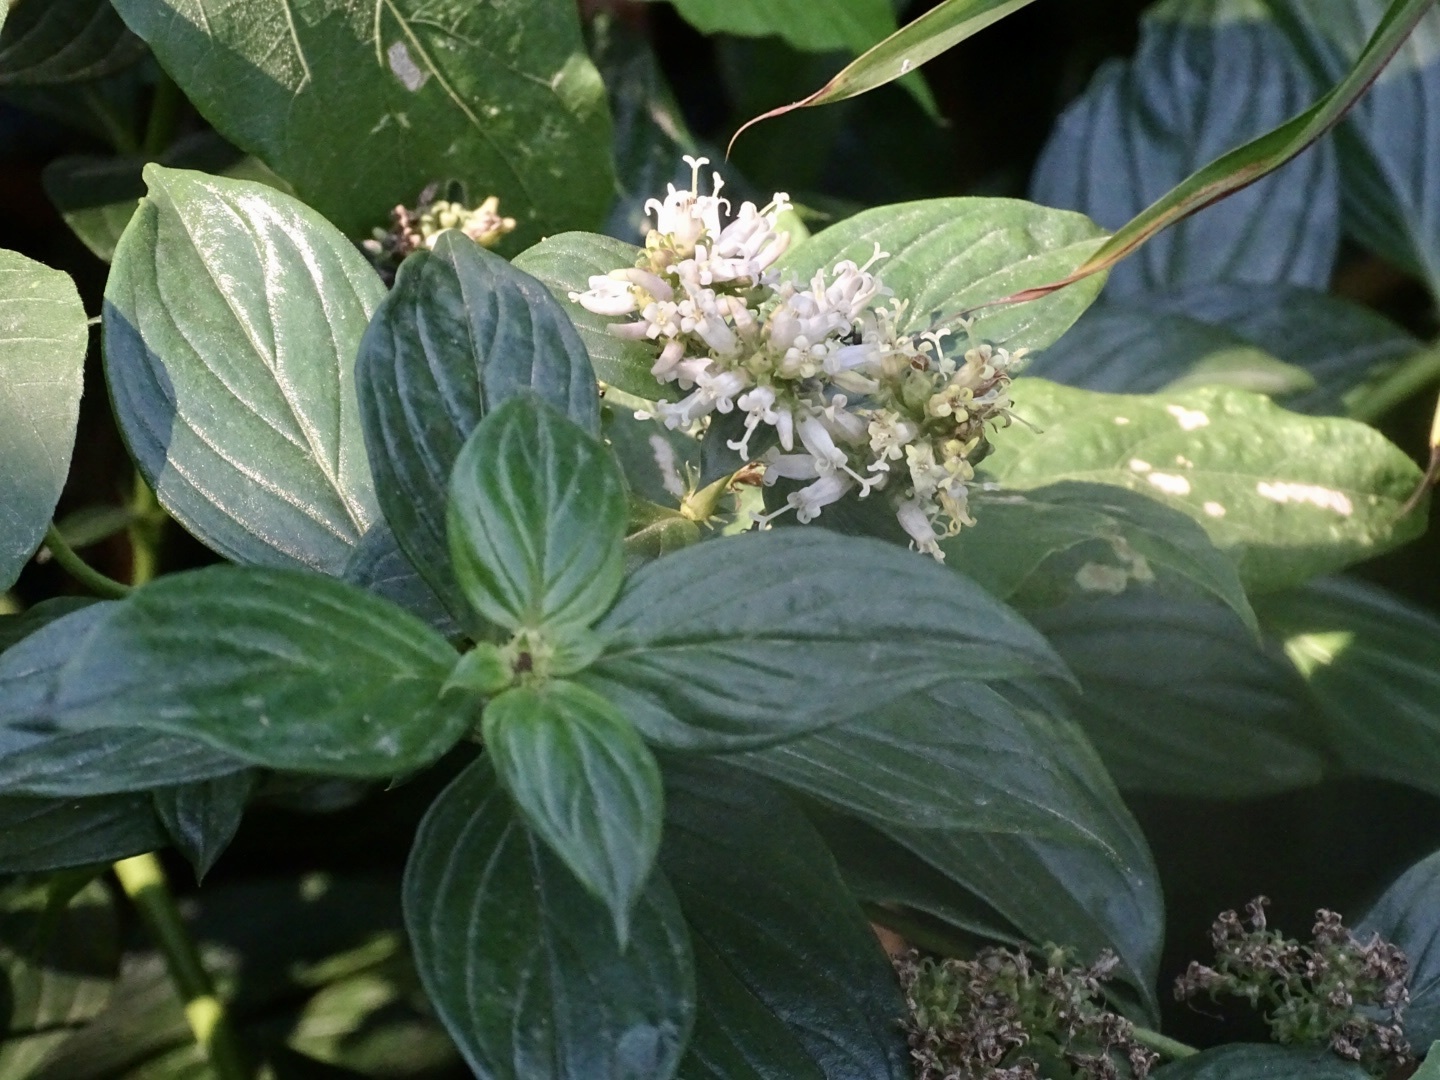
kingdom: Plantae
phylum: Tracheophyta
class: Magnoliopsida
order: Gentianales
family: Rubiaceae
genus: Dimetia
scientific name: Dimetia hedyotidea
